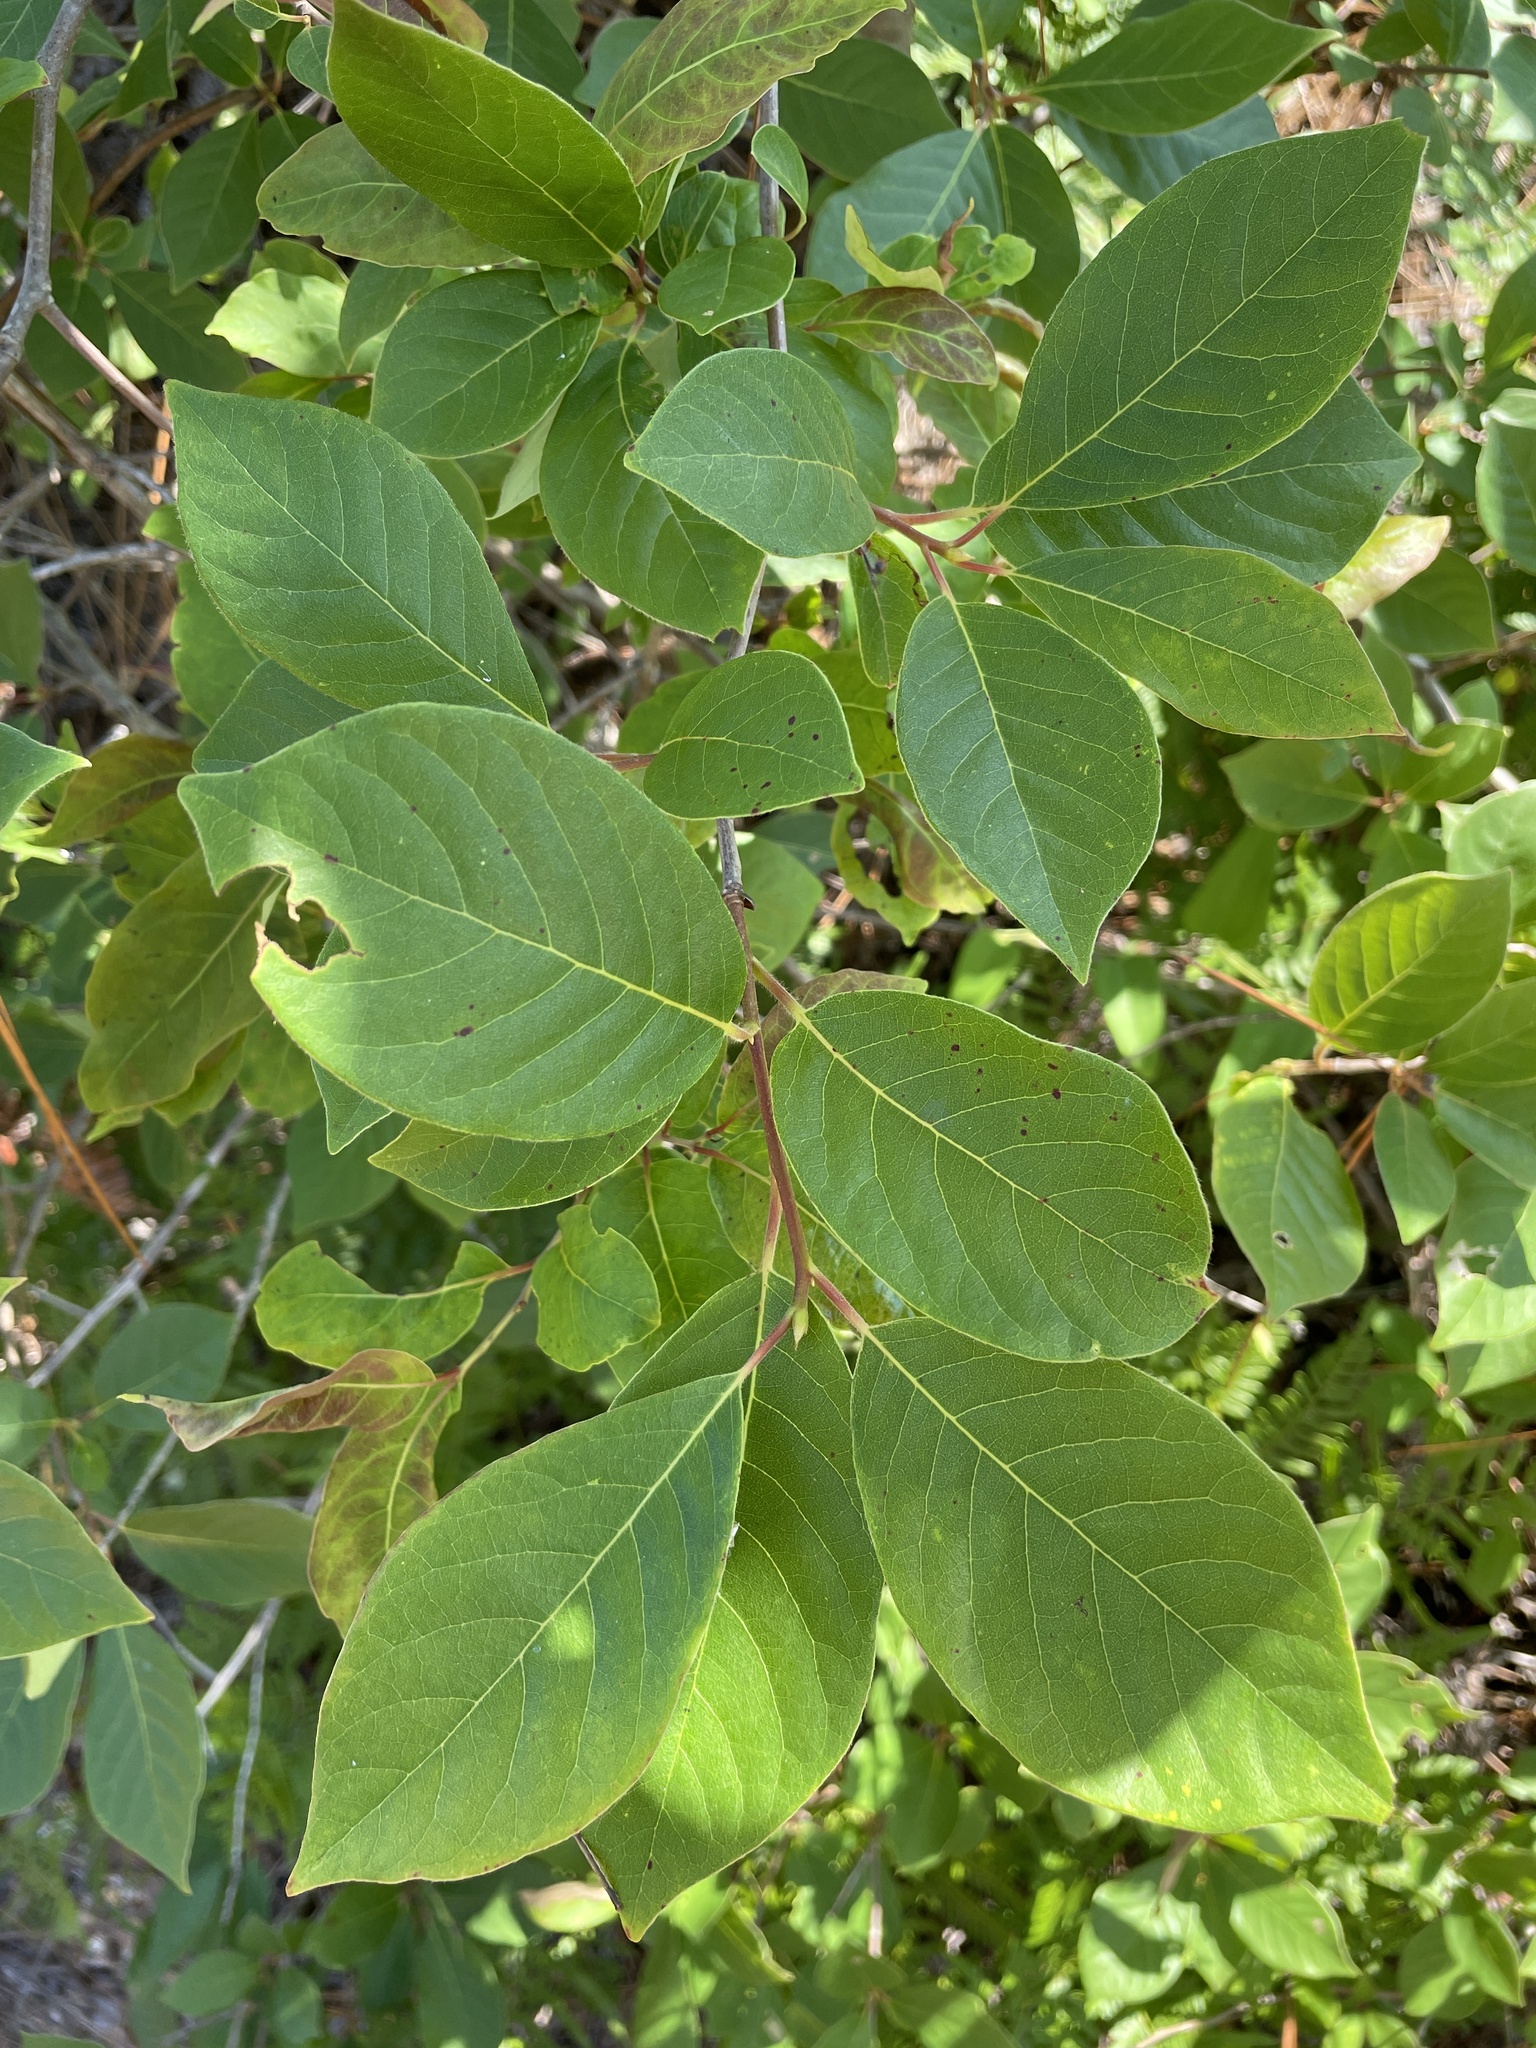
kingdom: Plantae
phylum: Tracheophyta
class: Magnoliopsida
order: Ericales
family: Ebenaceae
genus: Diospyros
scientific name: Diospyros virginiana
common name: Persimmon
